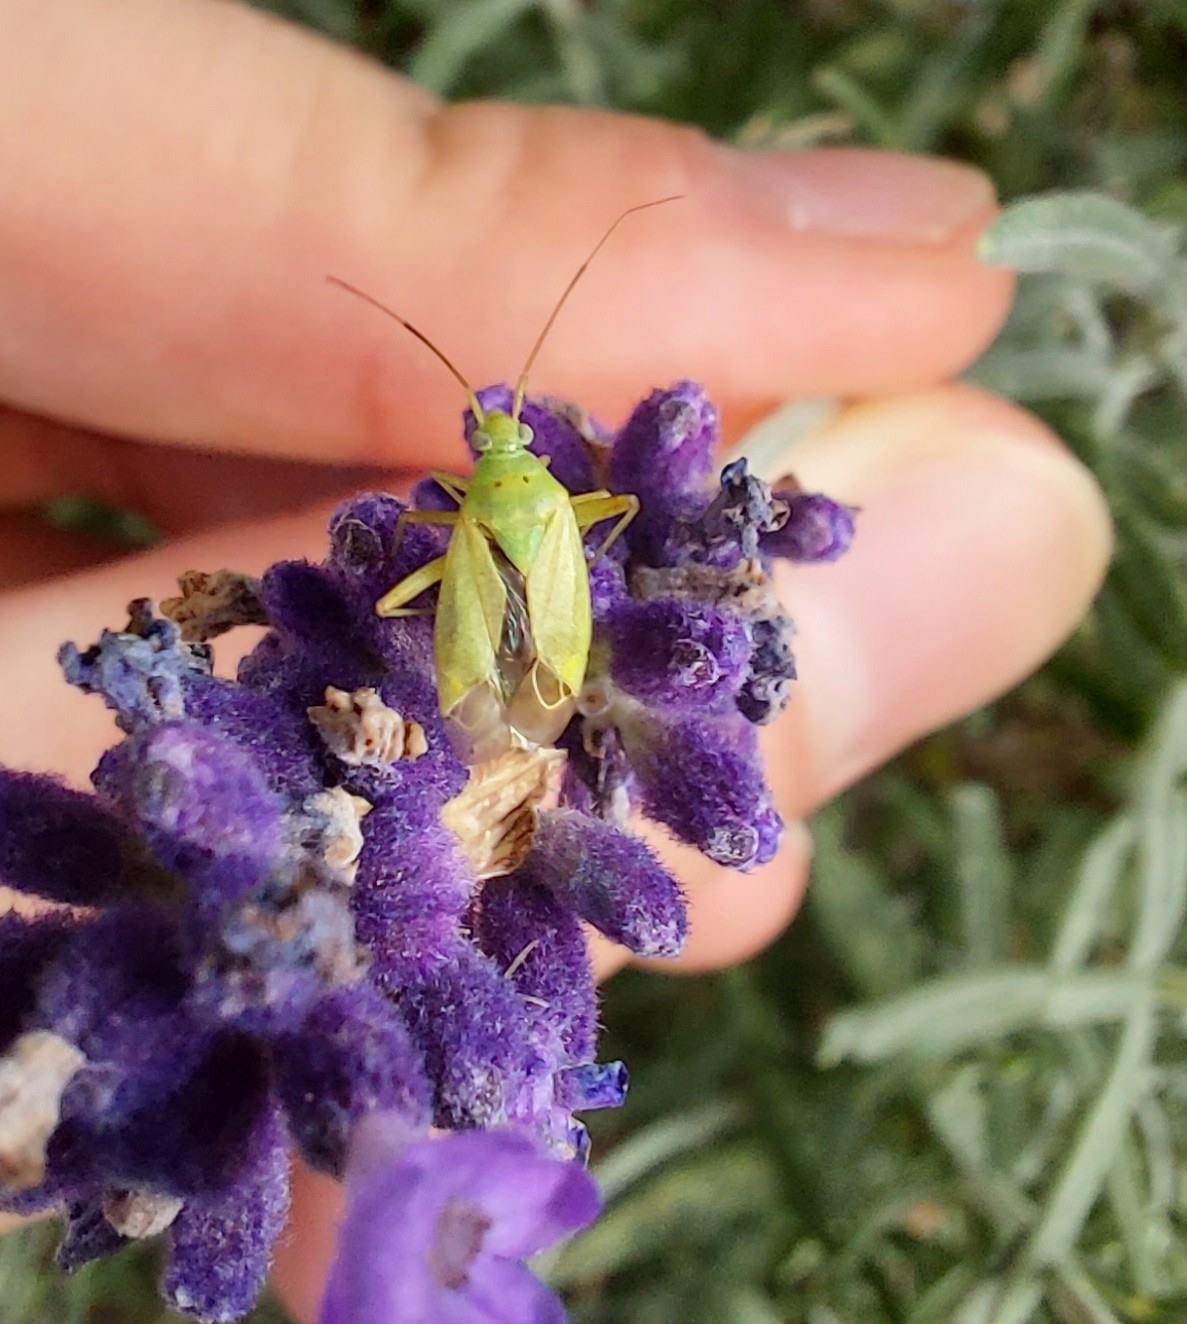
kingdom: Animalia
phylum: Arthropoda
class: Insecta
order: Hemiptera
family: Miridae
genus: Closterotomus
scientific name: Closterotomus norvegicus
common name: Plant bug
